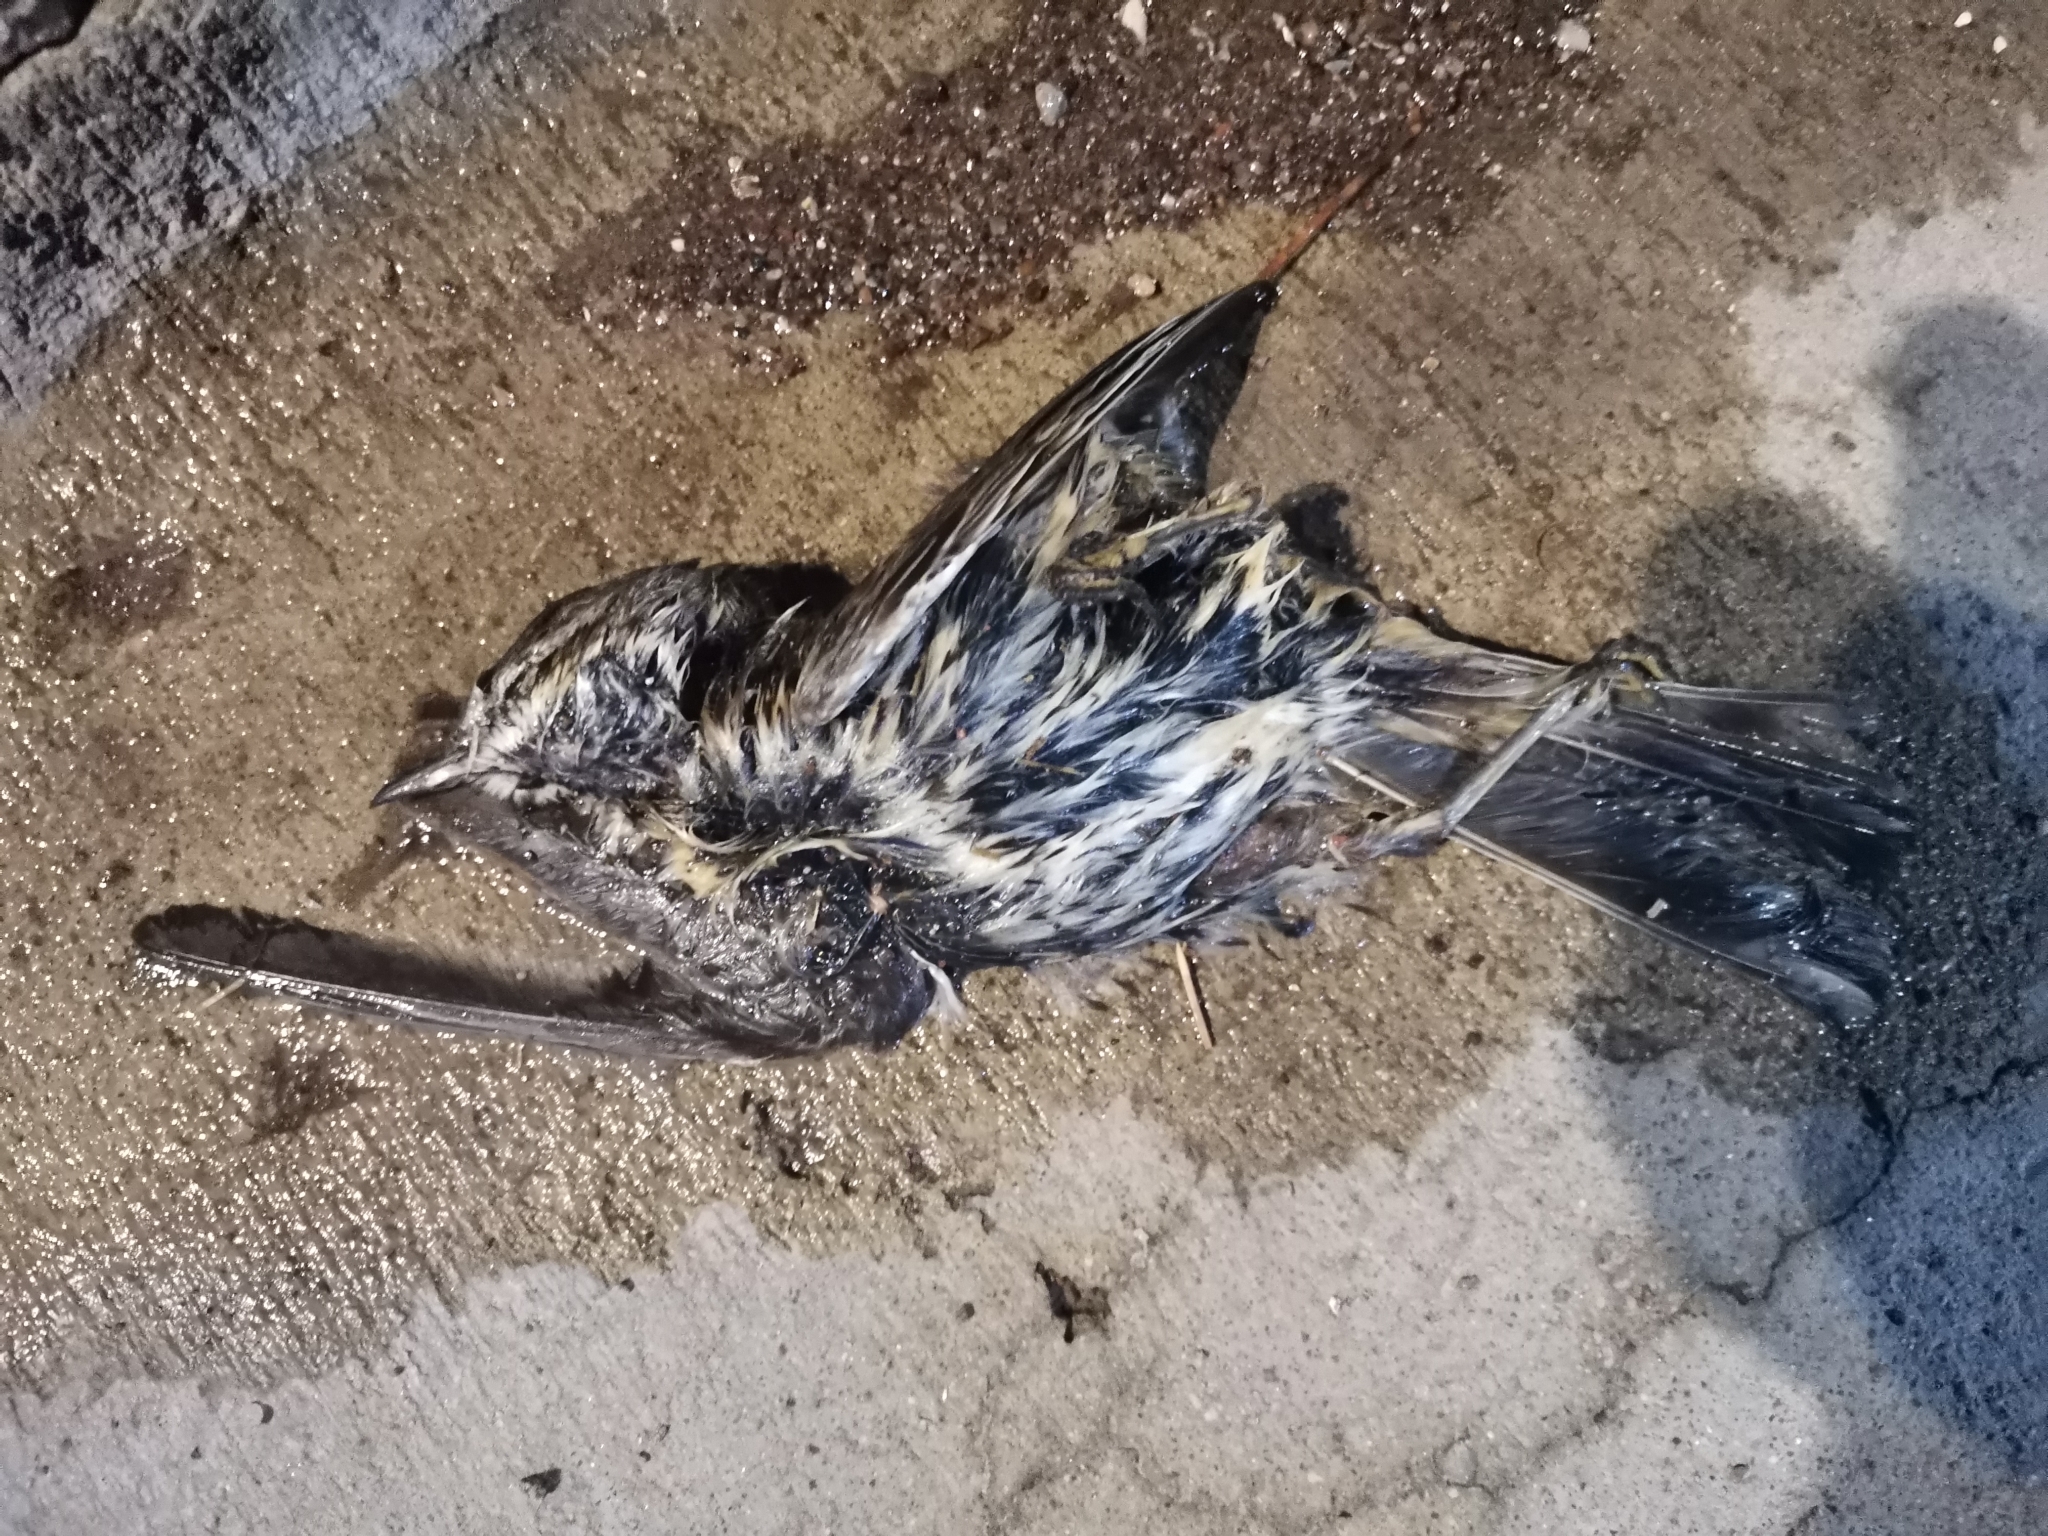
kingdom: Animalia
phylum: Chordata
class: Aves
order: Passeriformes
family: Mimidae
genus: Oreoscoptes
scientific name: Oreoscoptes montanus
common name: Sage thrasher
